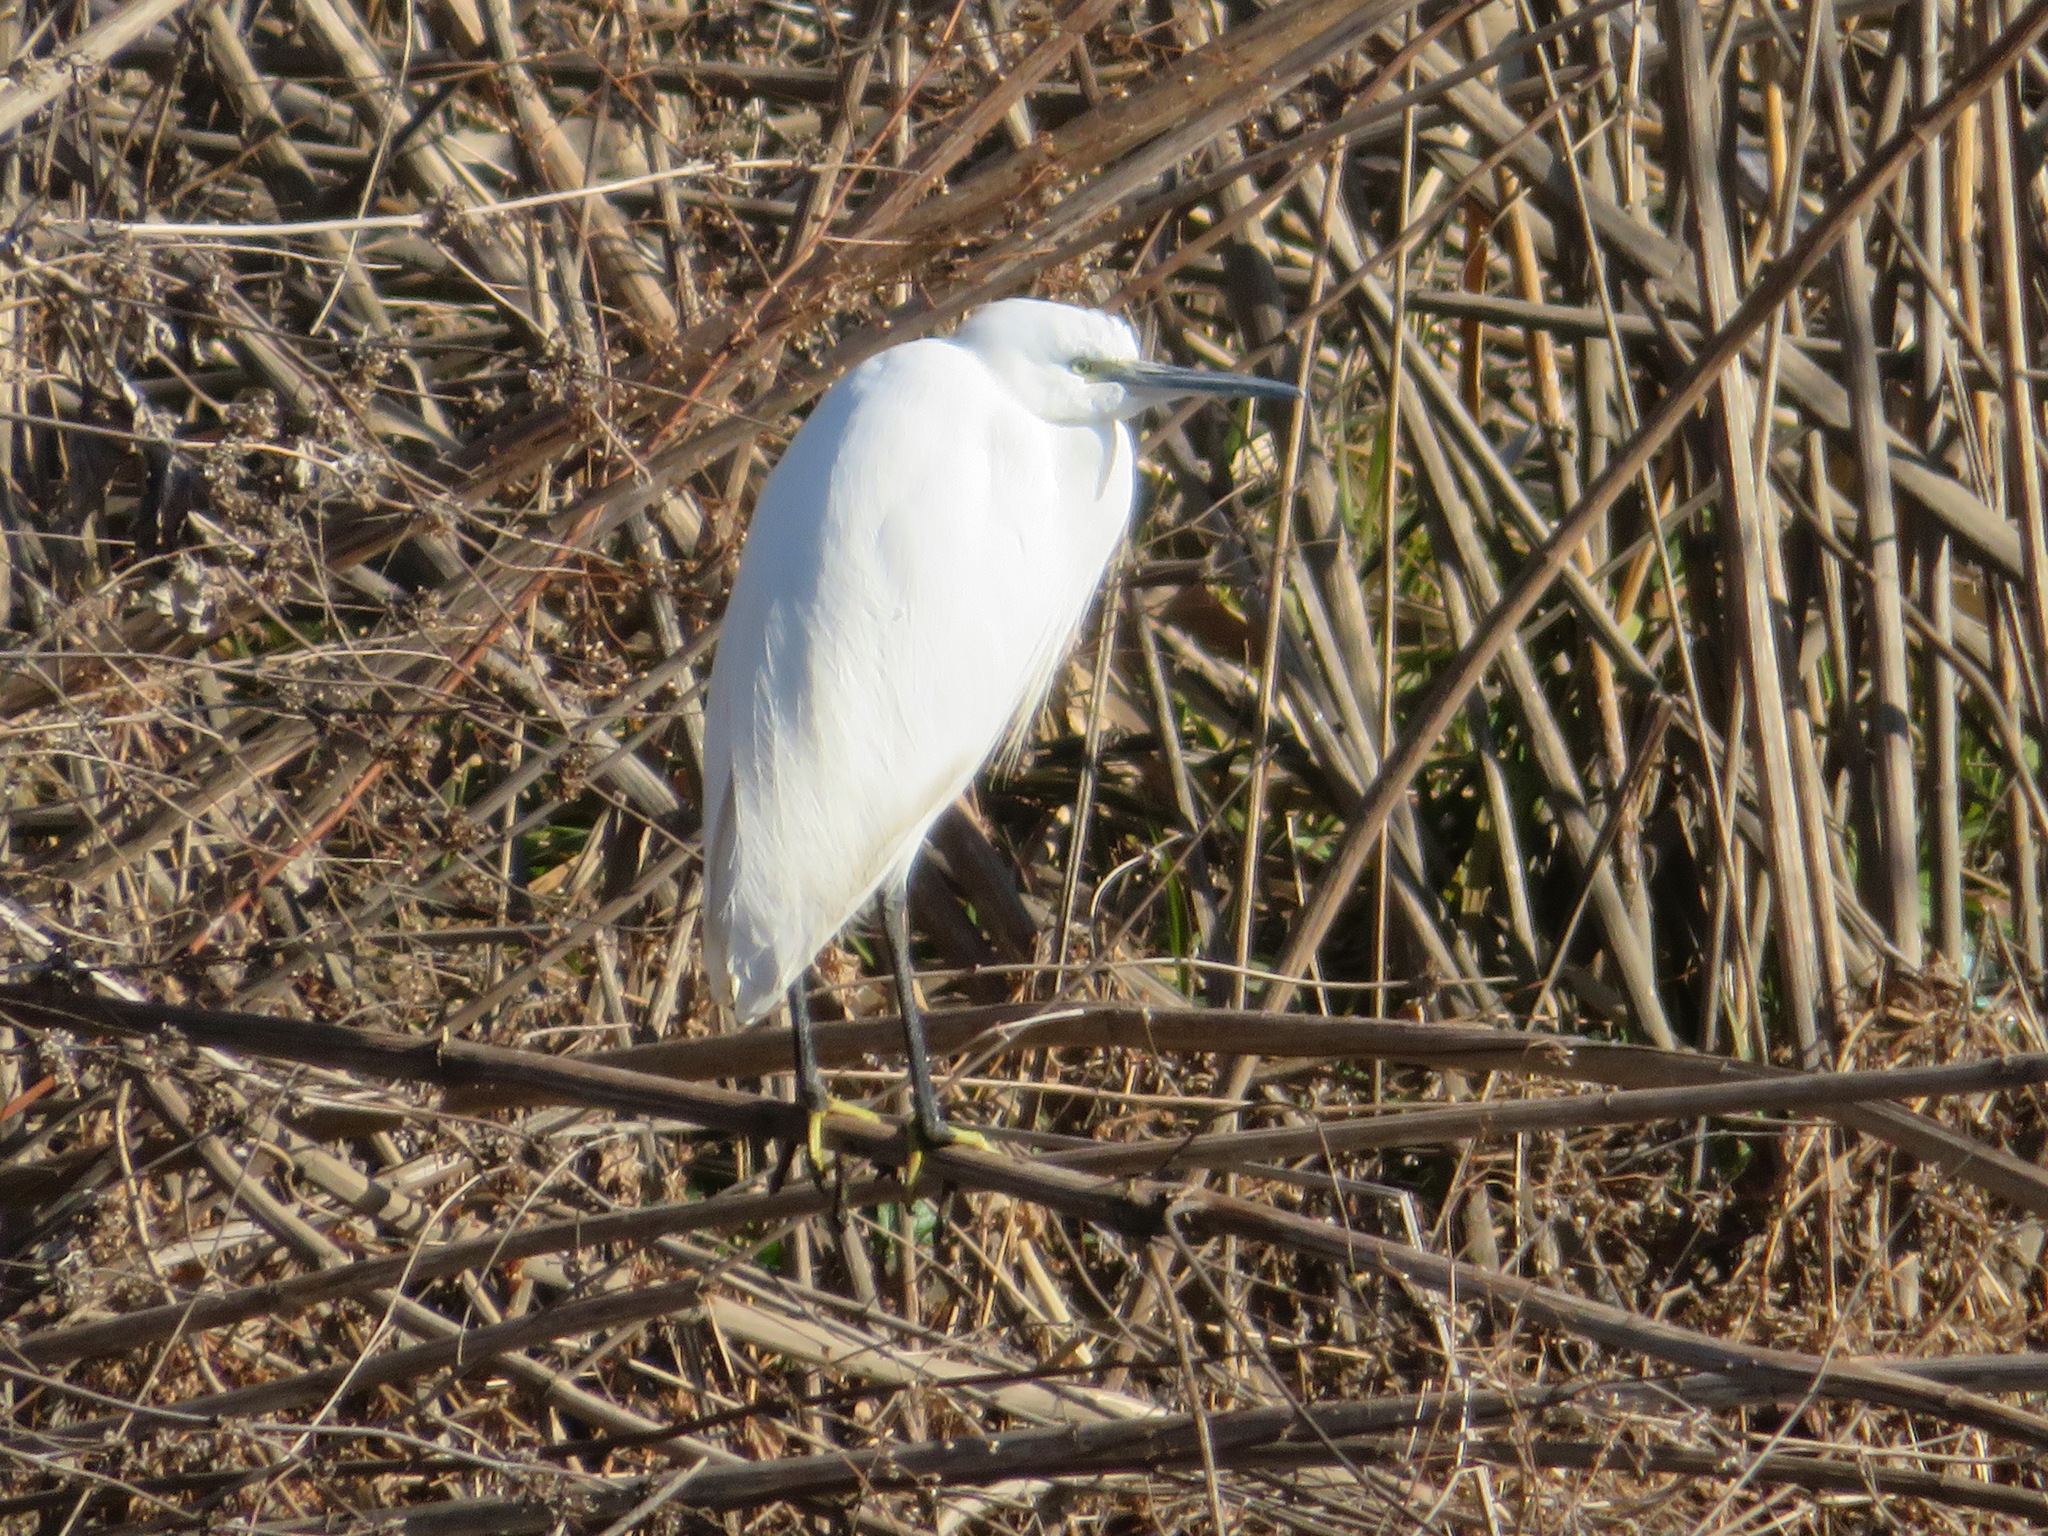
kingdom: Animalia
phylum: Chordata
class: Aves
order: Pelecaniformes
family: Ardeidae
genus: Egretta
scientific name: Egretta garzetta
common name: Little egret
